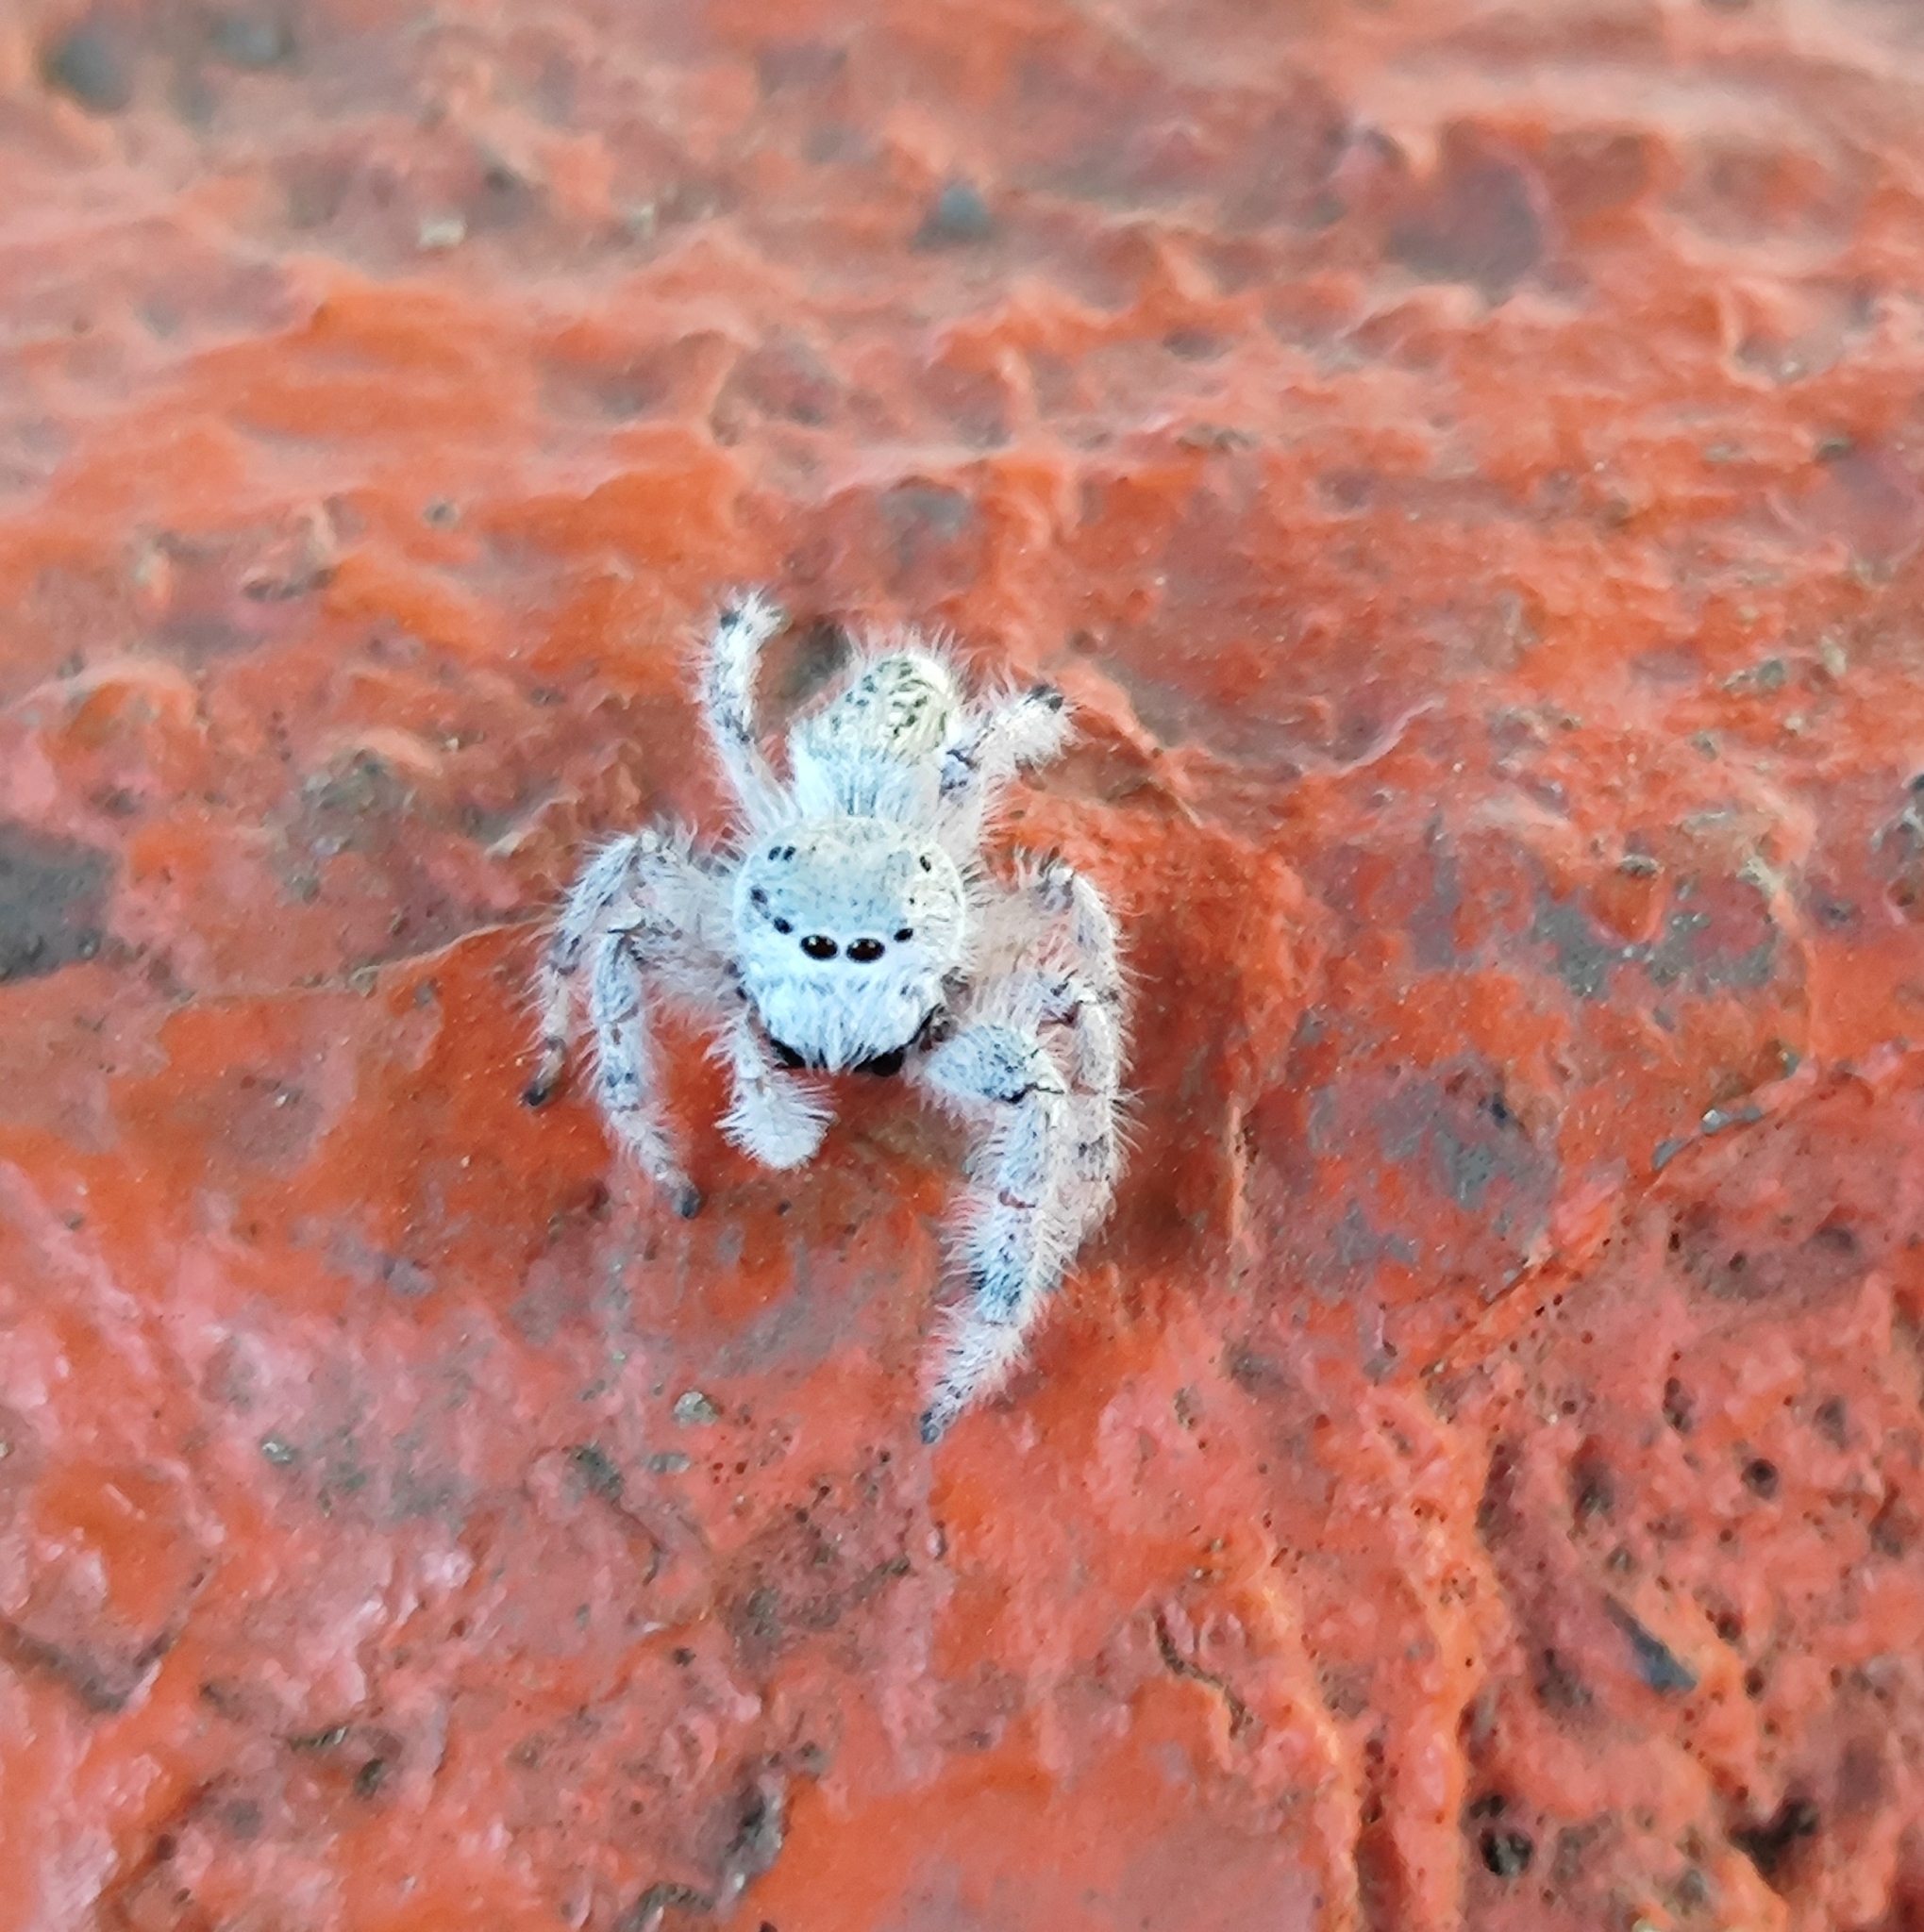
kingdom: Animalia
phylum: Arthropoda
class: Arachnida
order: Araneae
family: Salticidae
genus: Paraphidippus
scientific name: Paraphidippus fartilis
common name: Jumping spiders
